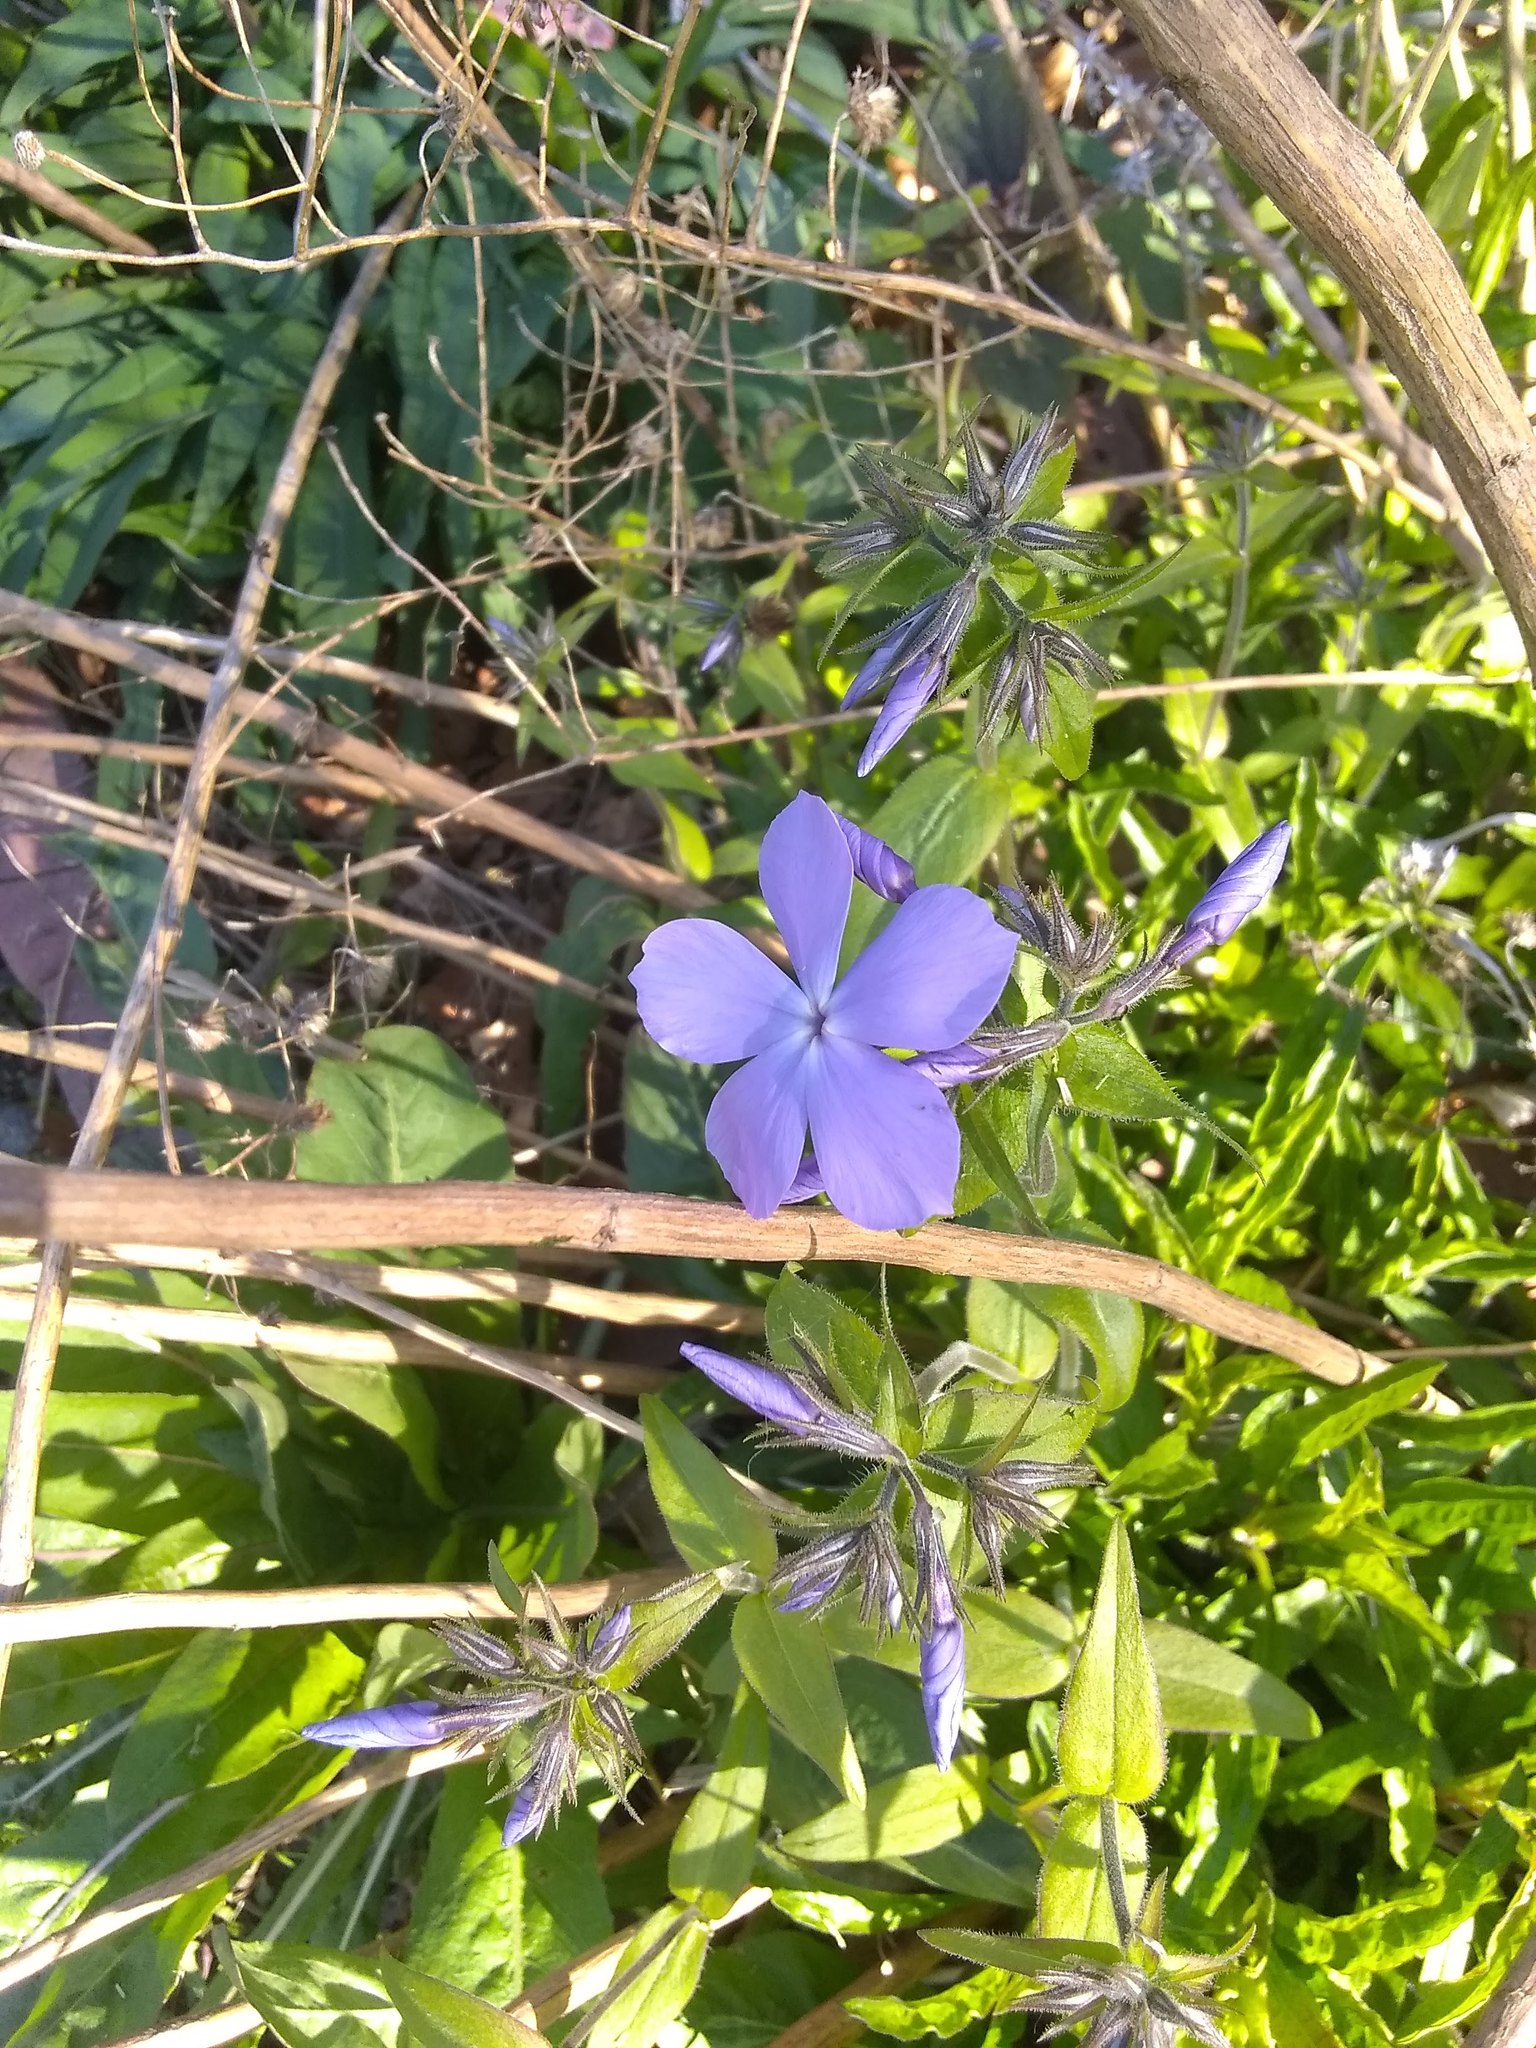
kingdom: Plantae
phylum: Tracheophyta
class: Magnoliopsida
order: Ericales
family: Polemoniaceae
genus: Phlox
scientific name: Phlox divaricata
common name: Blue phlox
